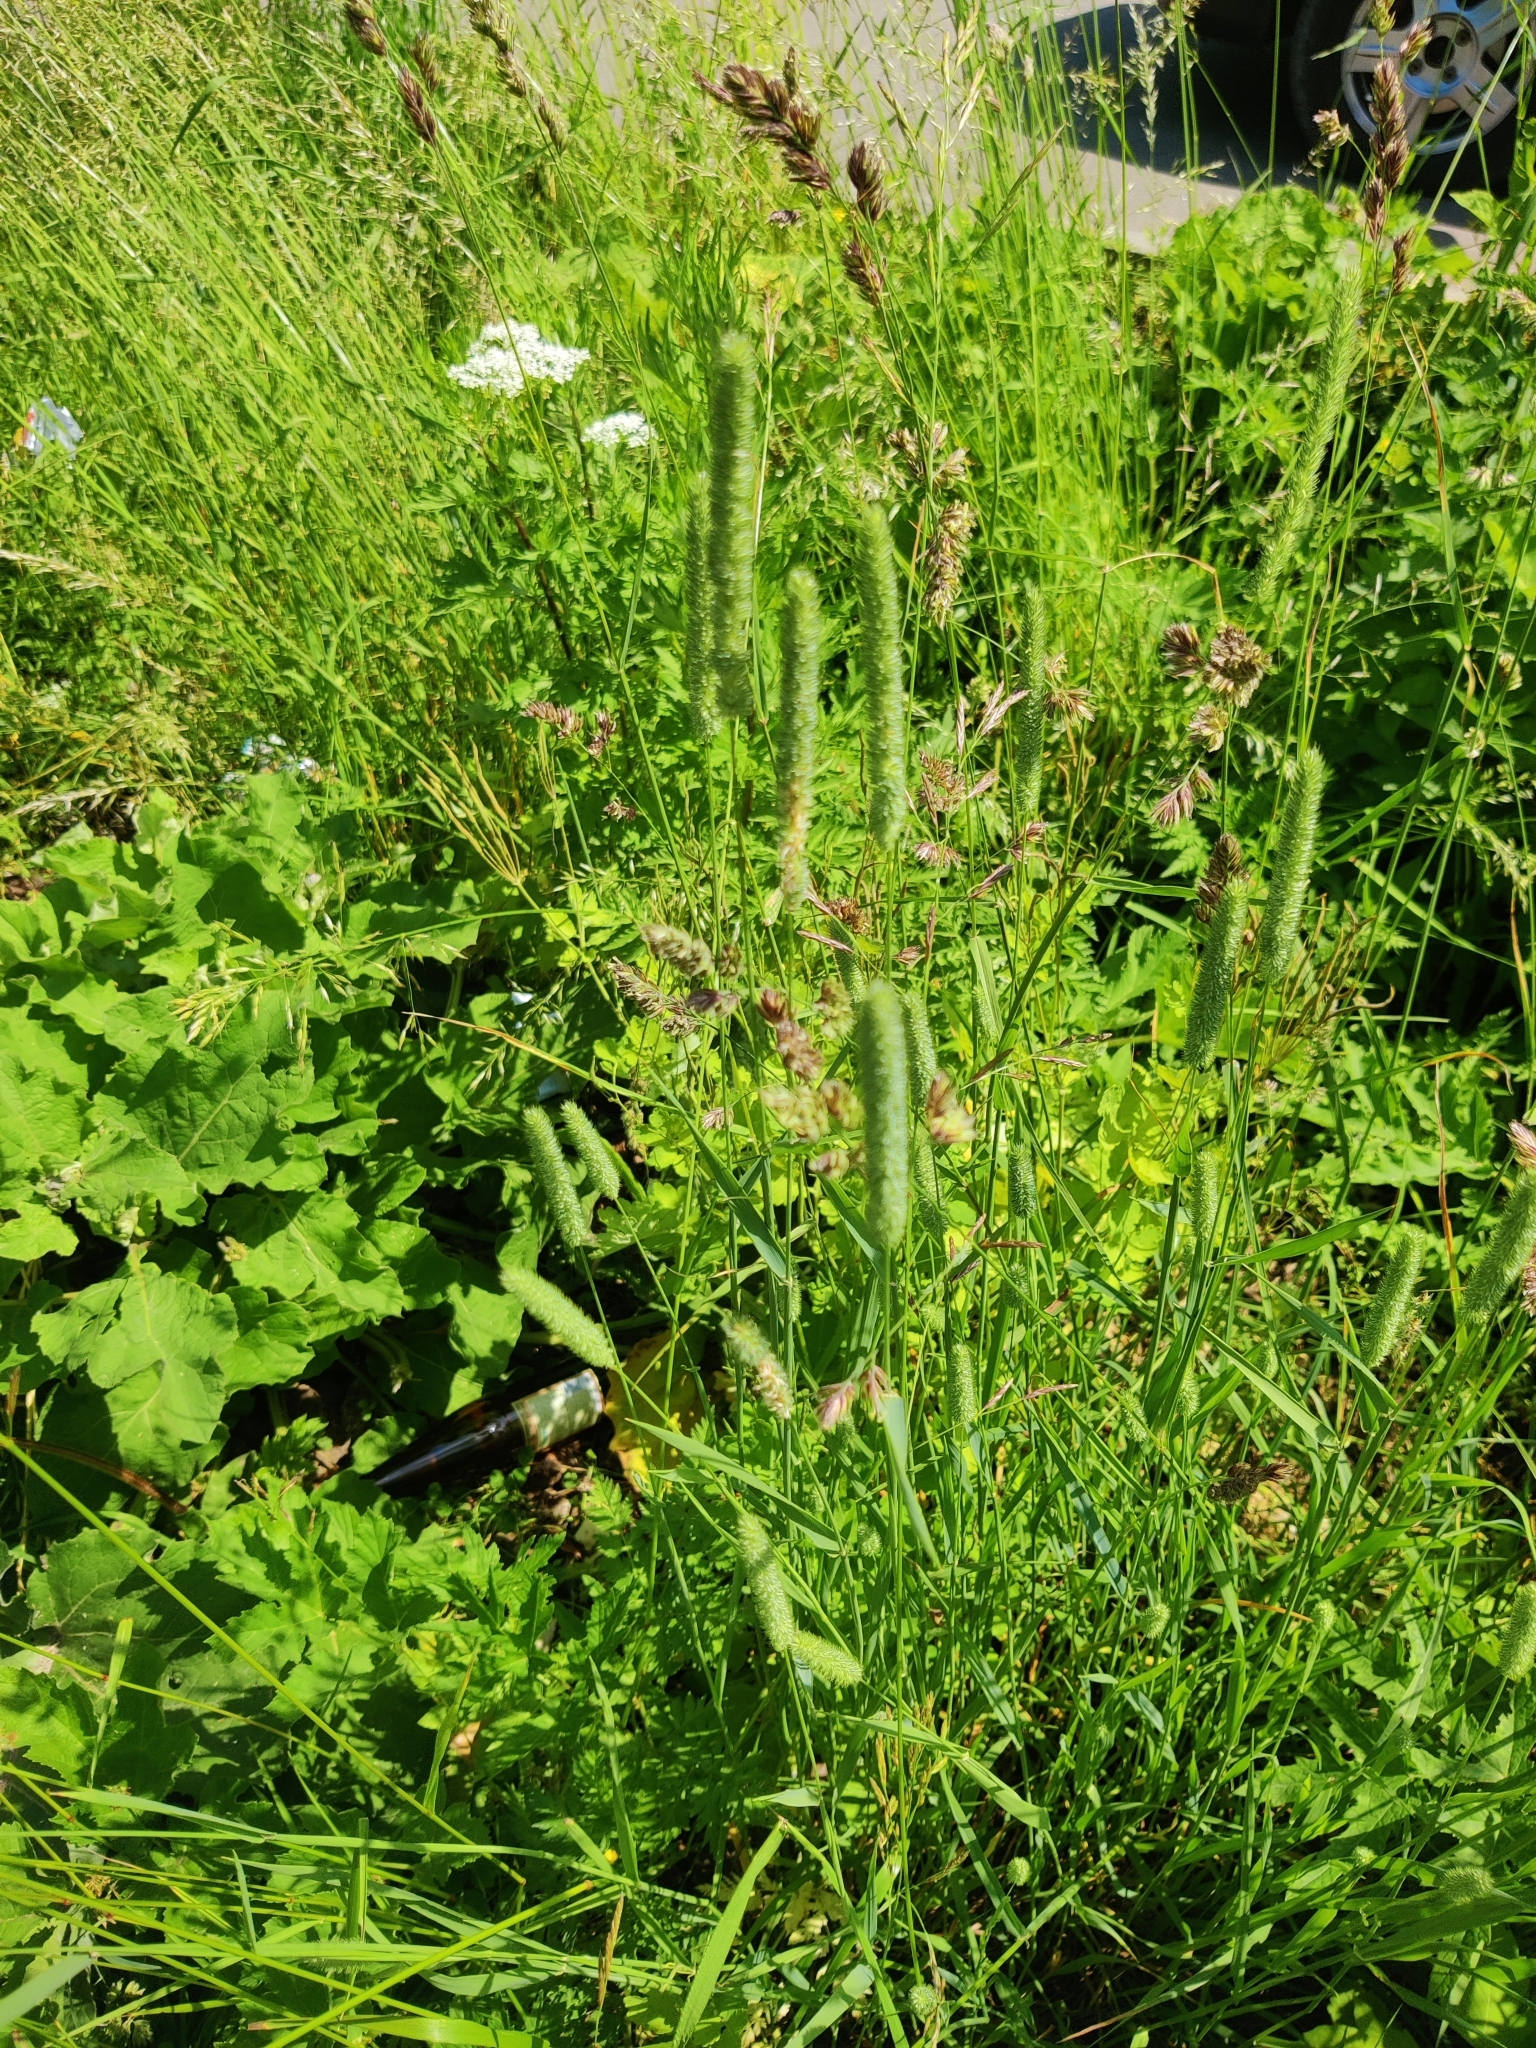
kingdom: Plantae
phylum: Tracheophyta
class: Liliopsida
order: Poales
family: Poaceae
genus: Phleum
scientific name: Phleum pratense
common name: Timothy grass
